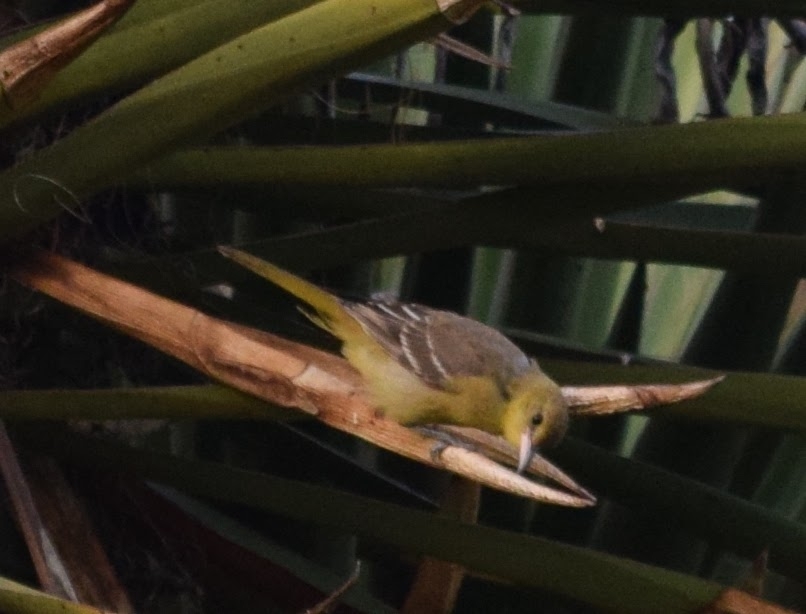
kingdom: Animalia
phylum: Chordata
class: Aves
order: Passeriformes
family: Icteridae
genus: Icterus
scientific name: Icterus cucullatus
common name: Hooded oriole
